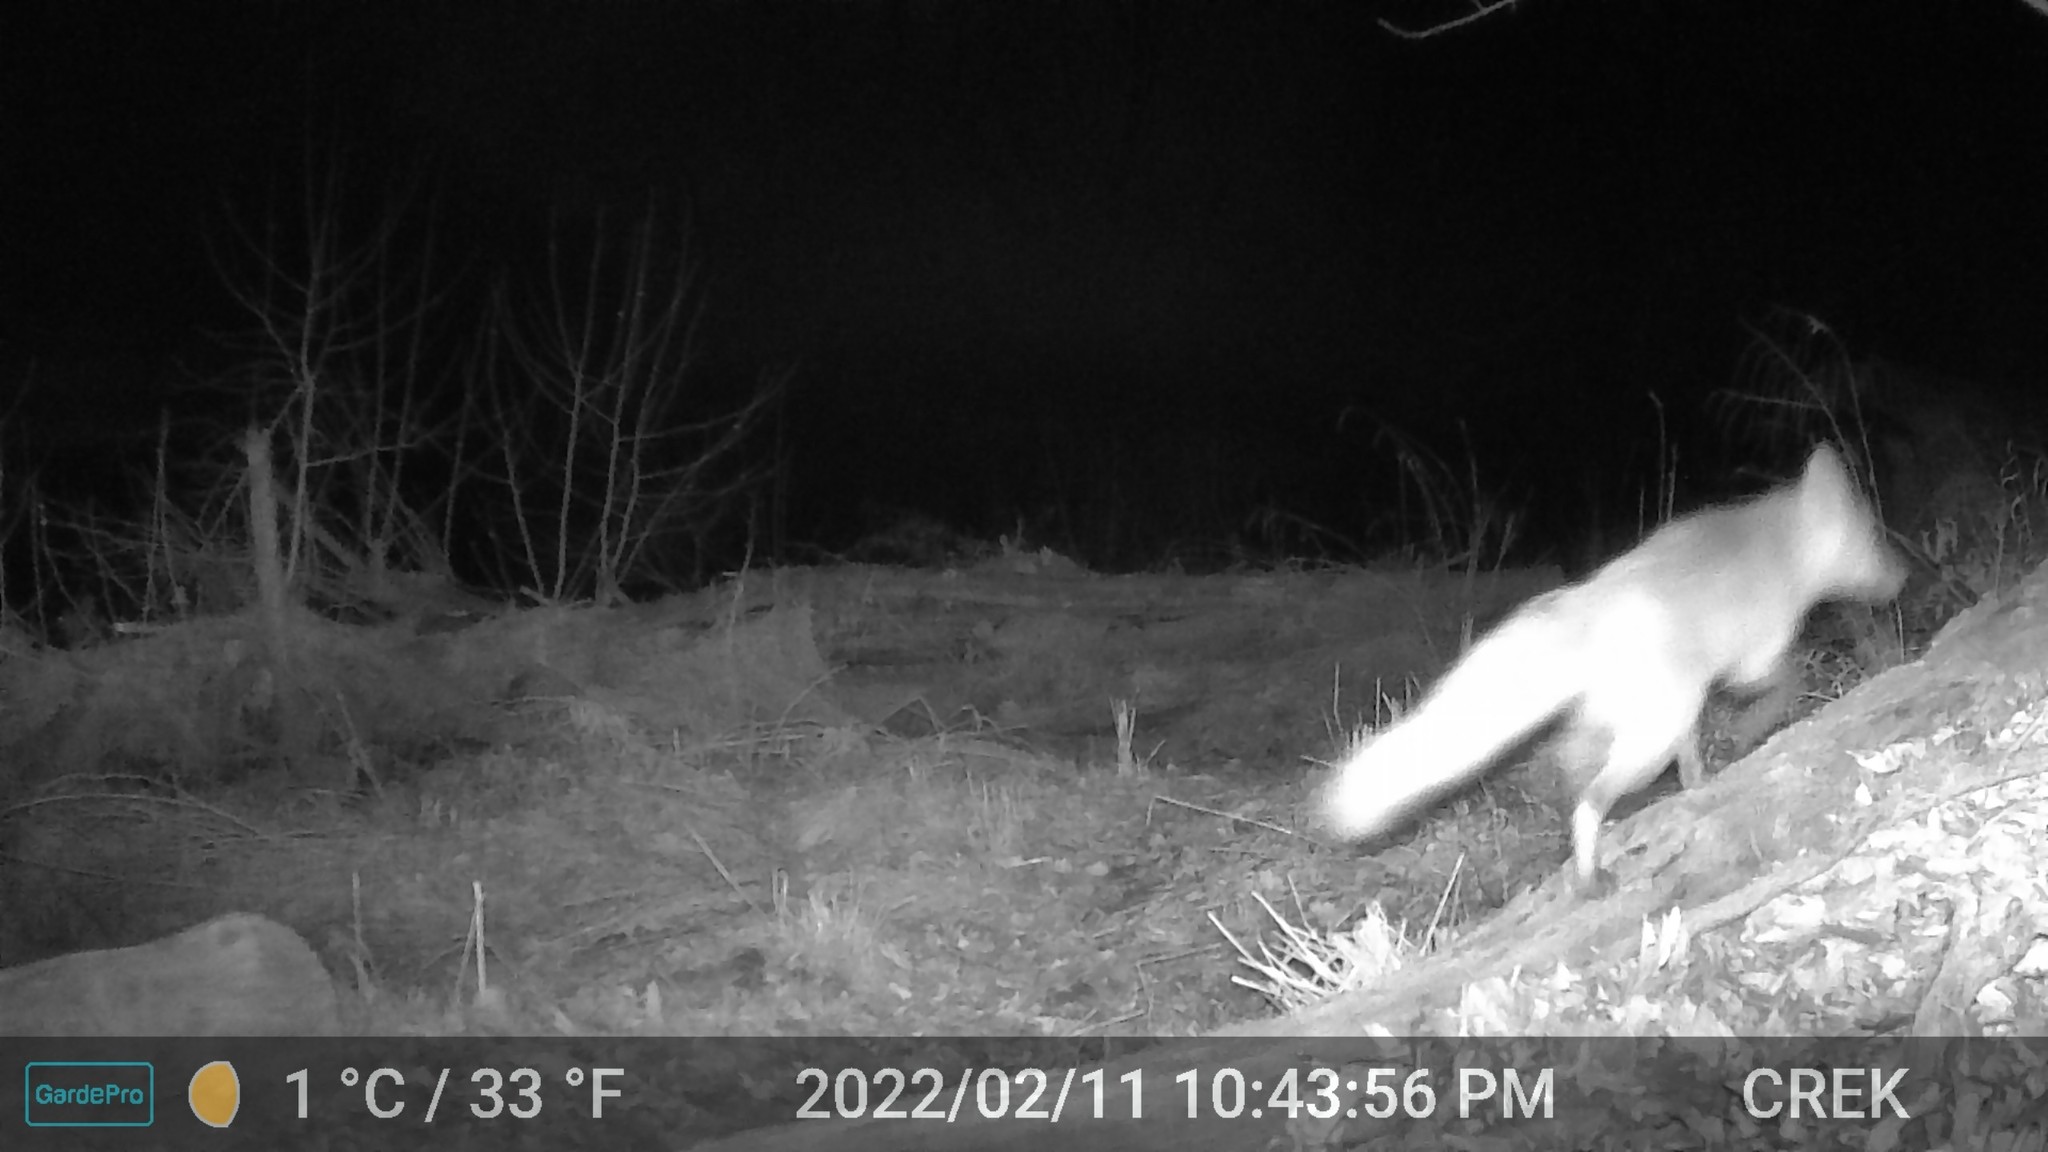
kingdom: Animalia
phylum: Chordata
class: Mammalia
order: Carnivora
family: Canidae
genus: Vulpes
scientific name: Vulpes vulpes
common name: Red fox
